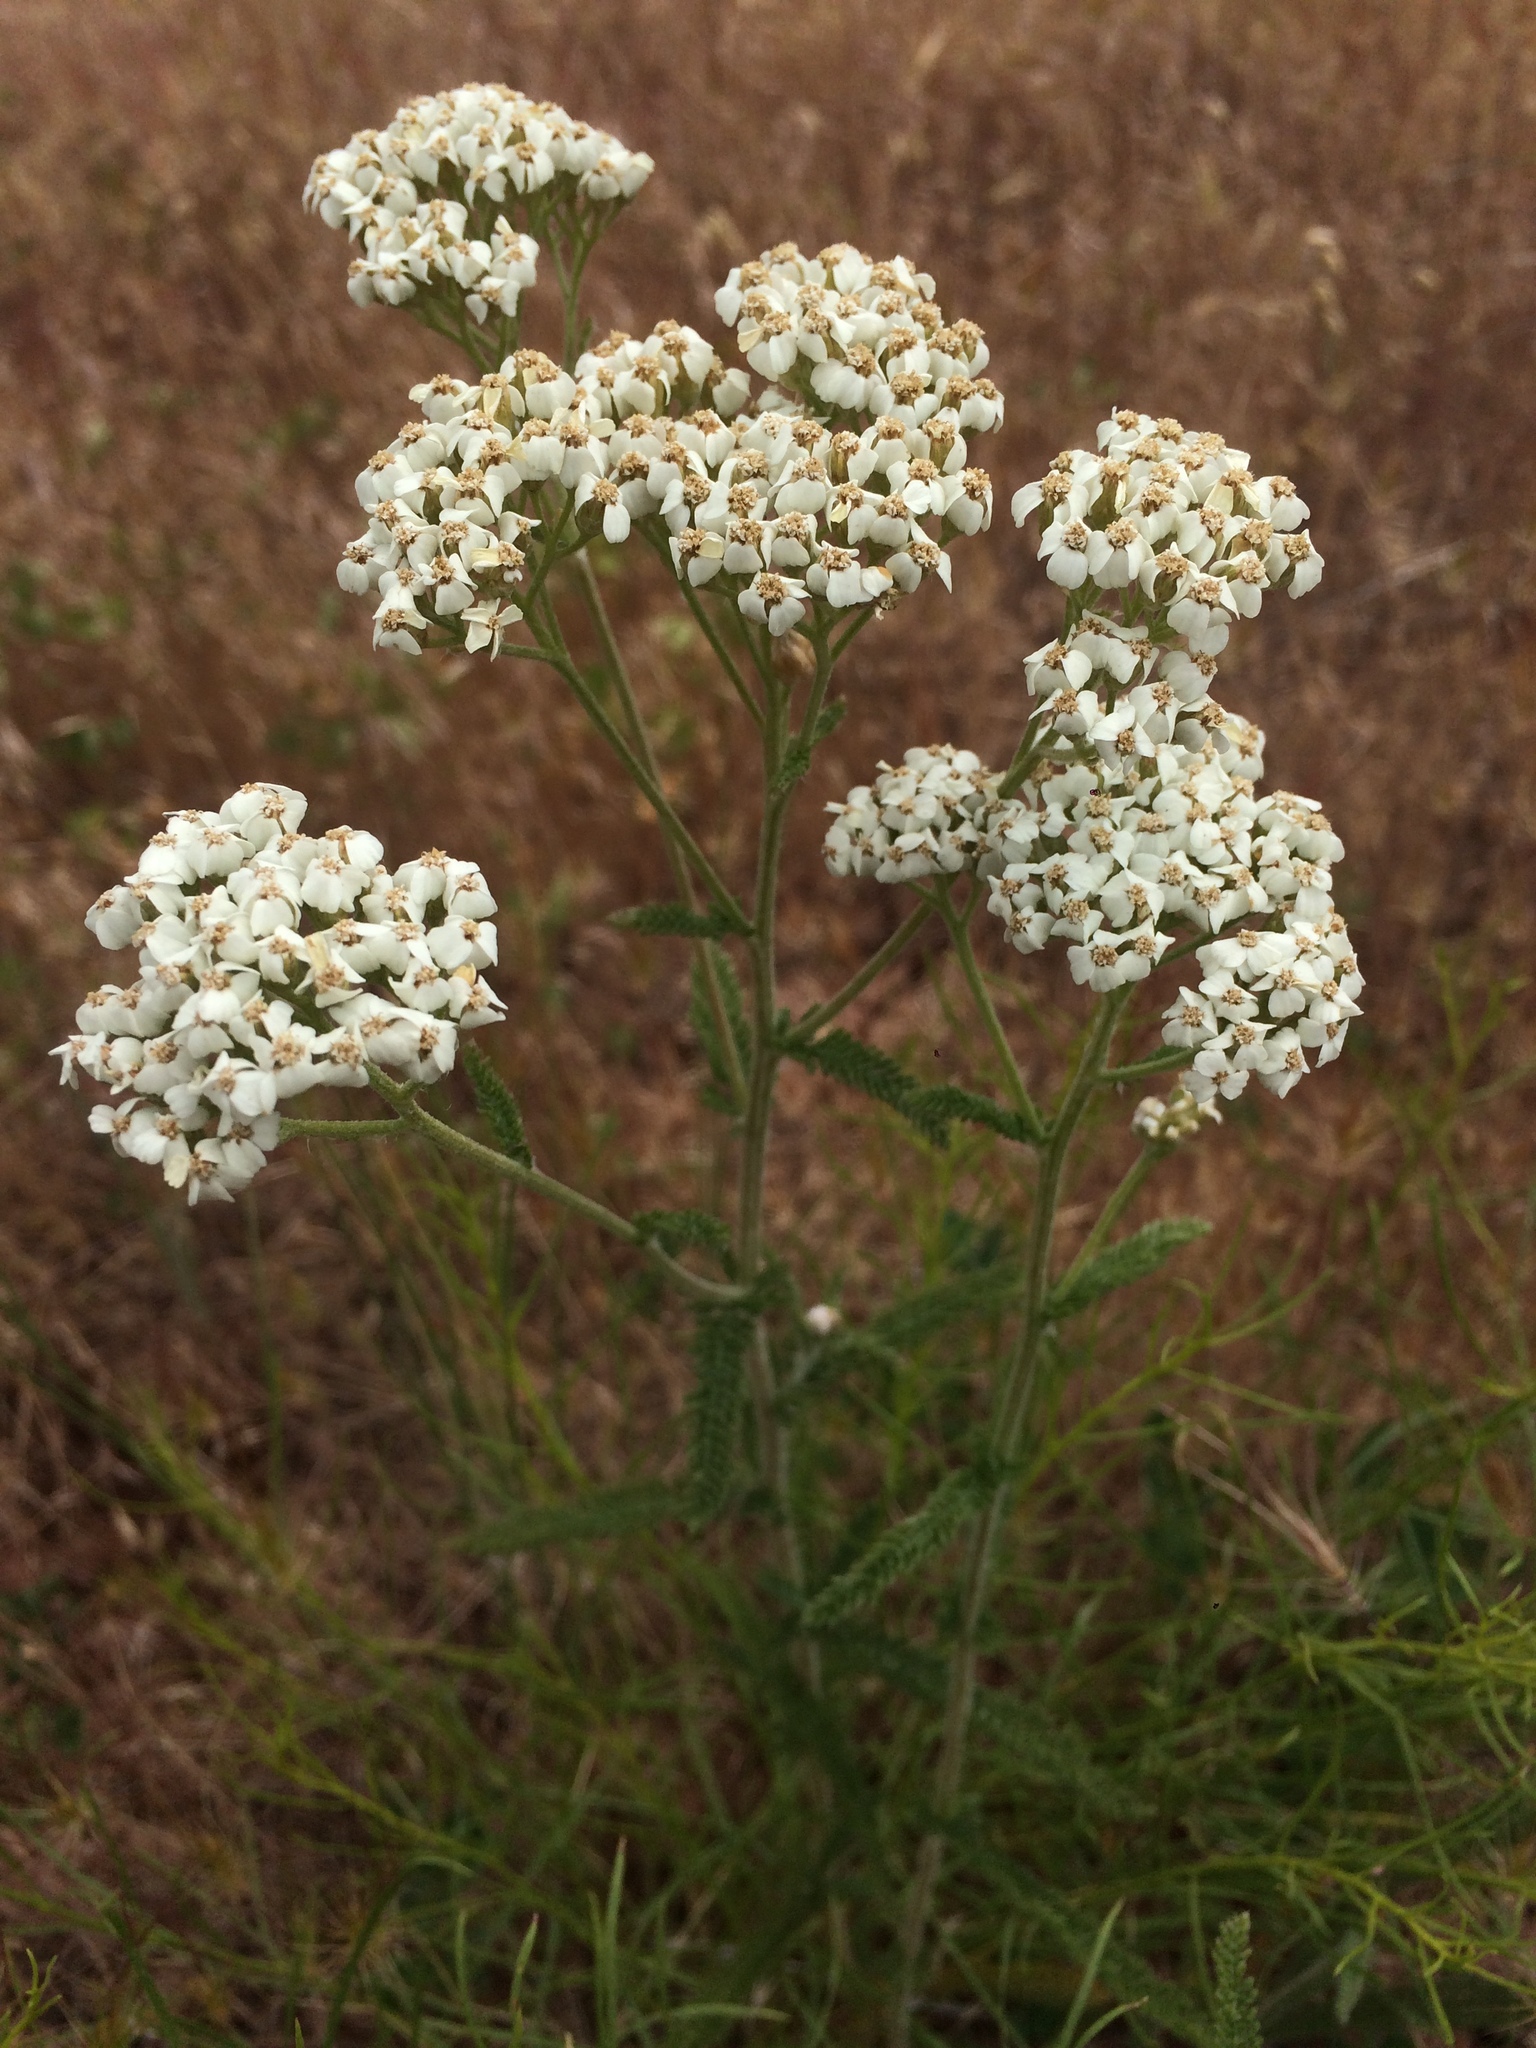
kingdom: Plantae
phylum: Tracheophyta
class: Magnoliopsida
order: Asterales
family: Asteraceae
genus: Achillea
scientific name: Achillea millefolium
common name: Yarrow
